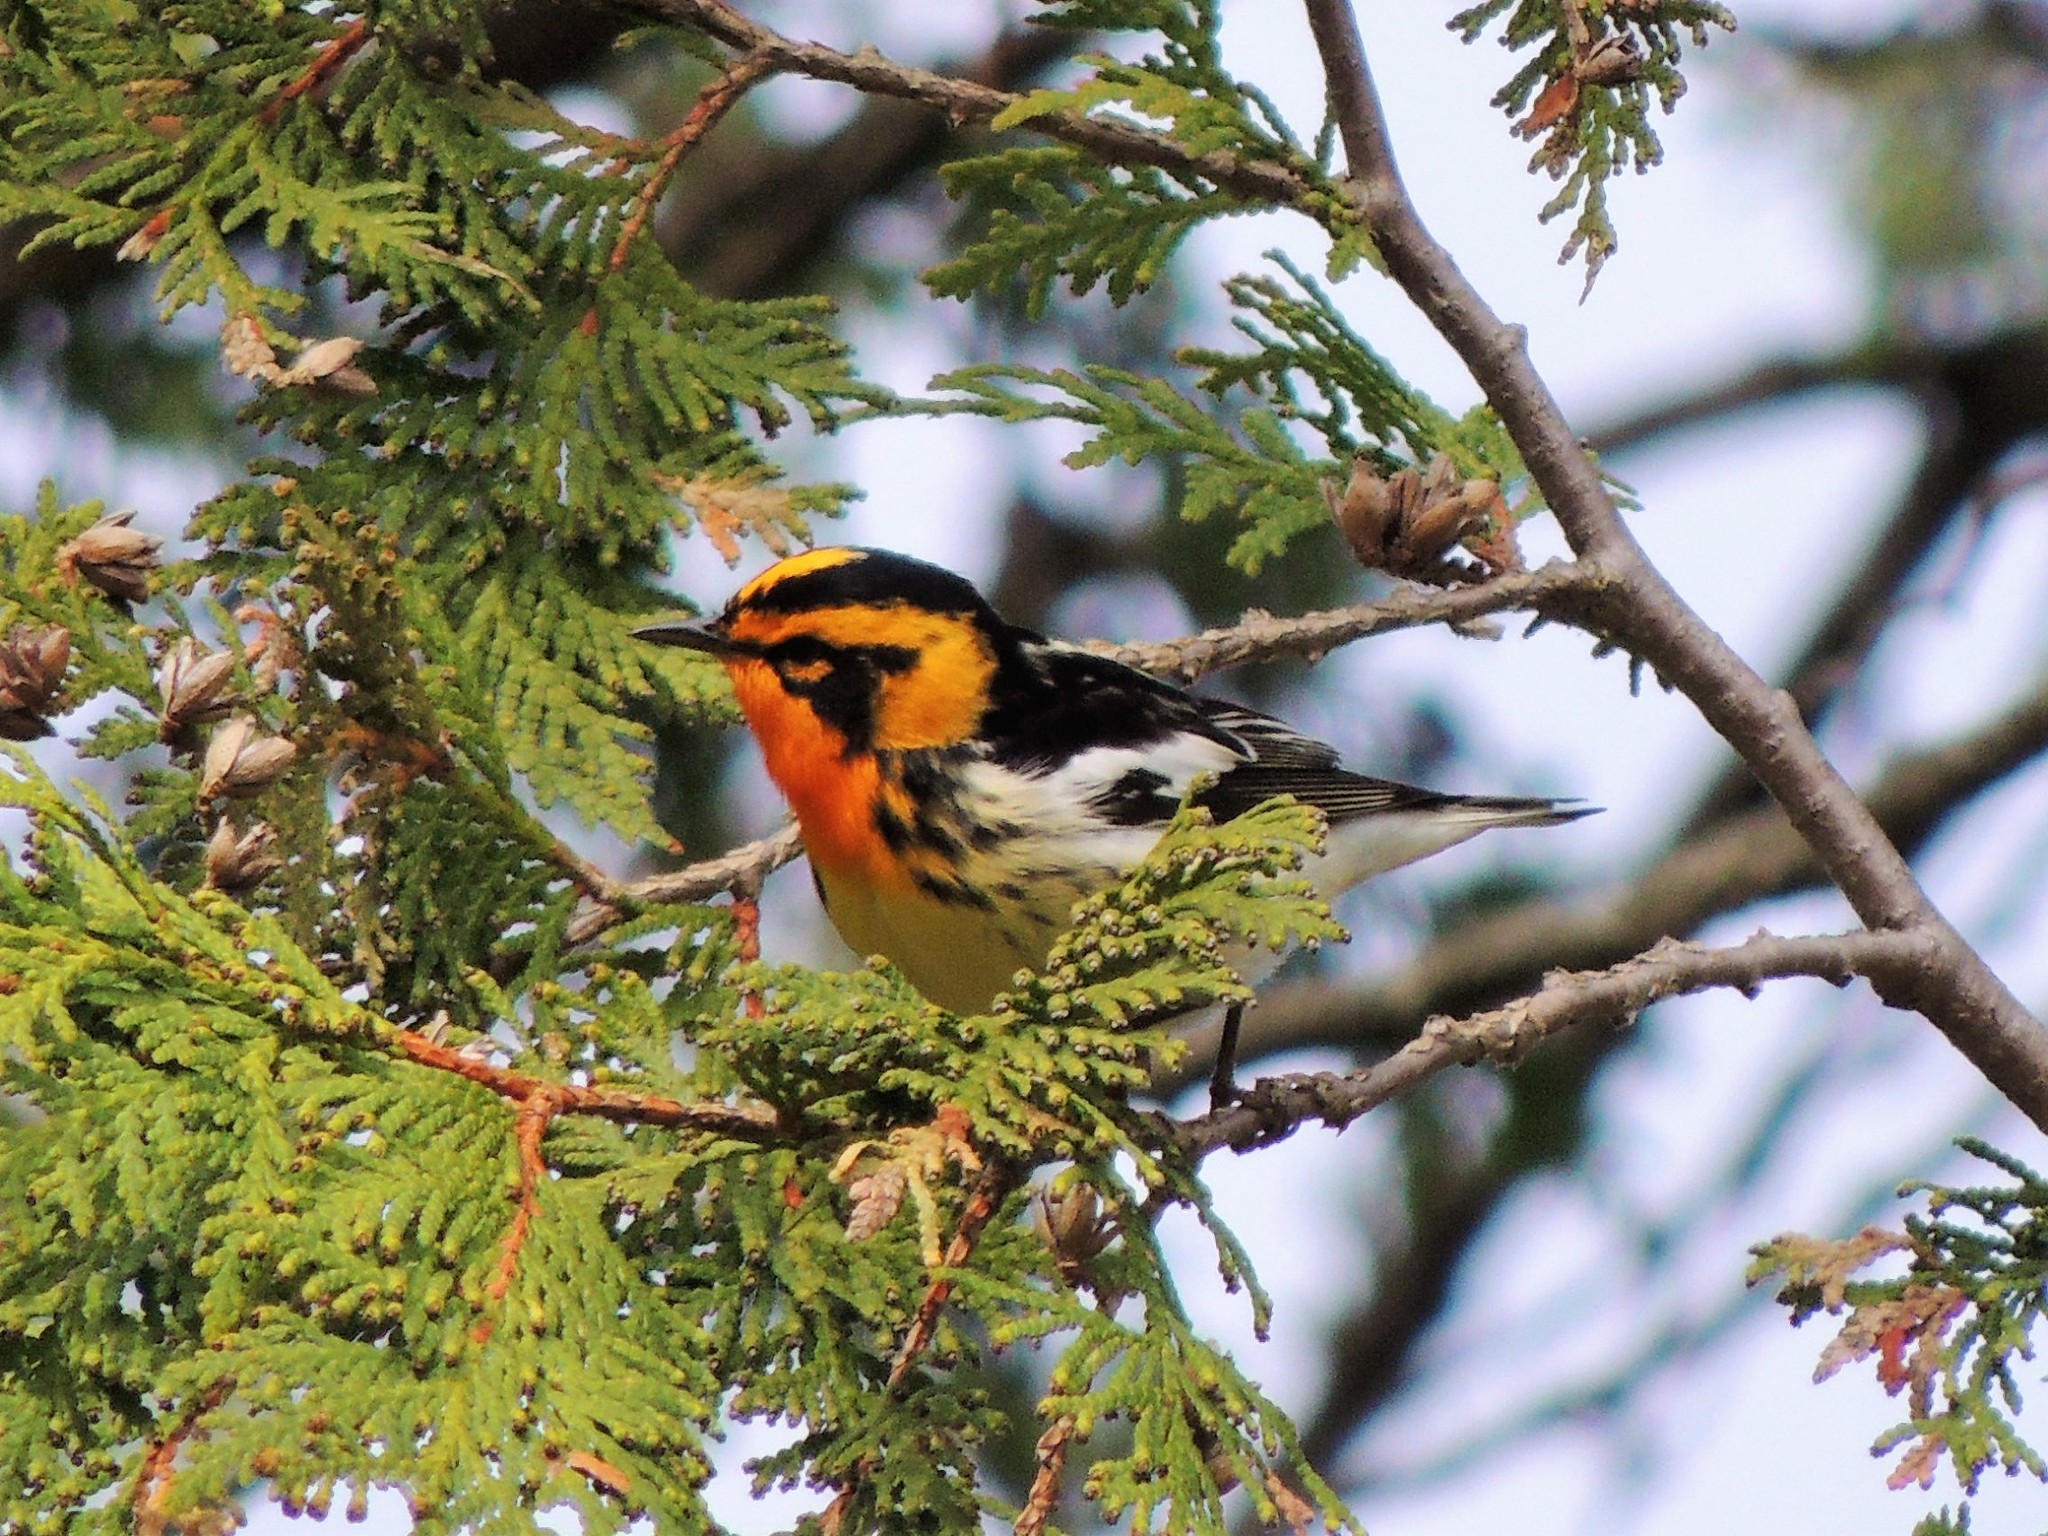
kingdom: Animalia
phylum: Chordata
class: Aves
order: Passeriformes
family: Parulidae
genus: Setophaga
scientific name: Setophaga fusca
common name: Blackburnian warbler
